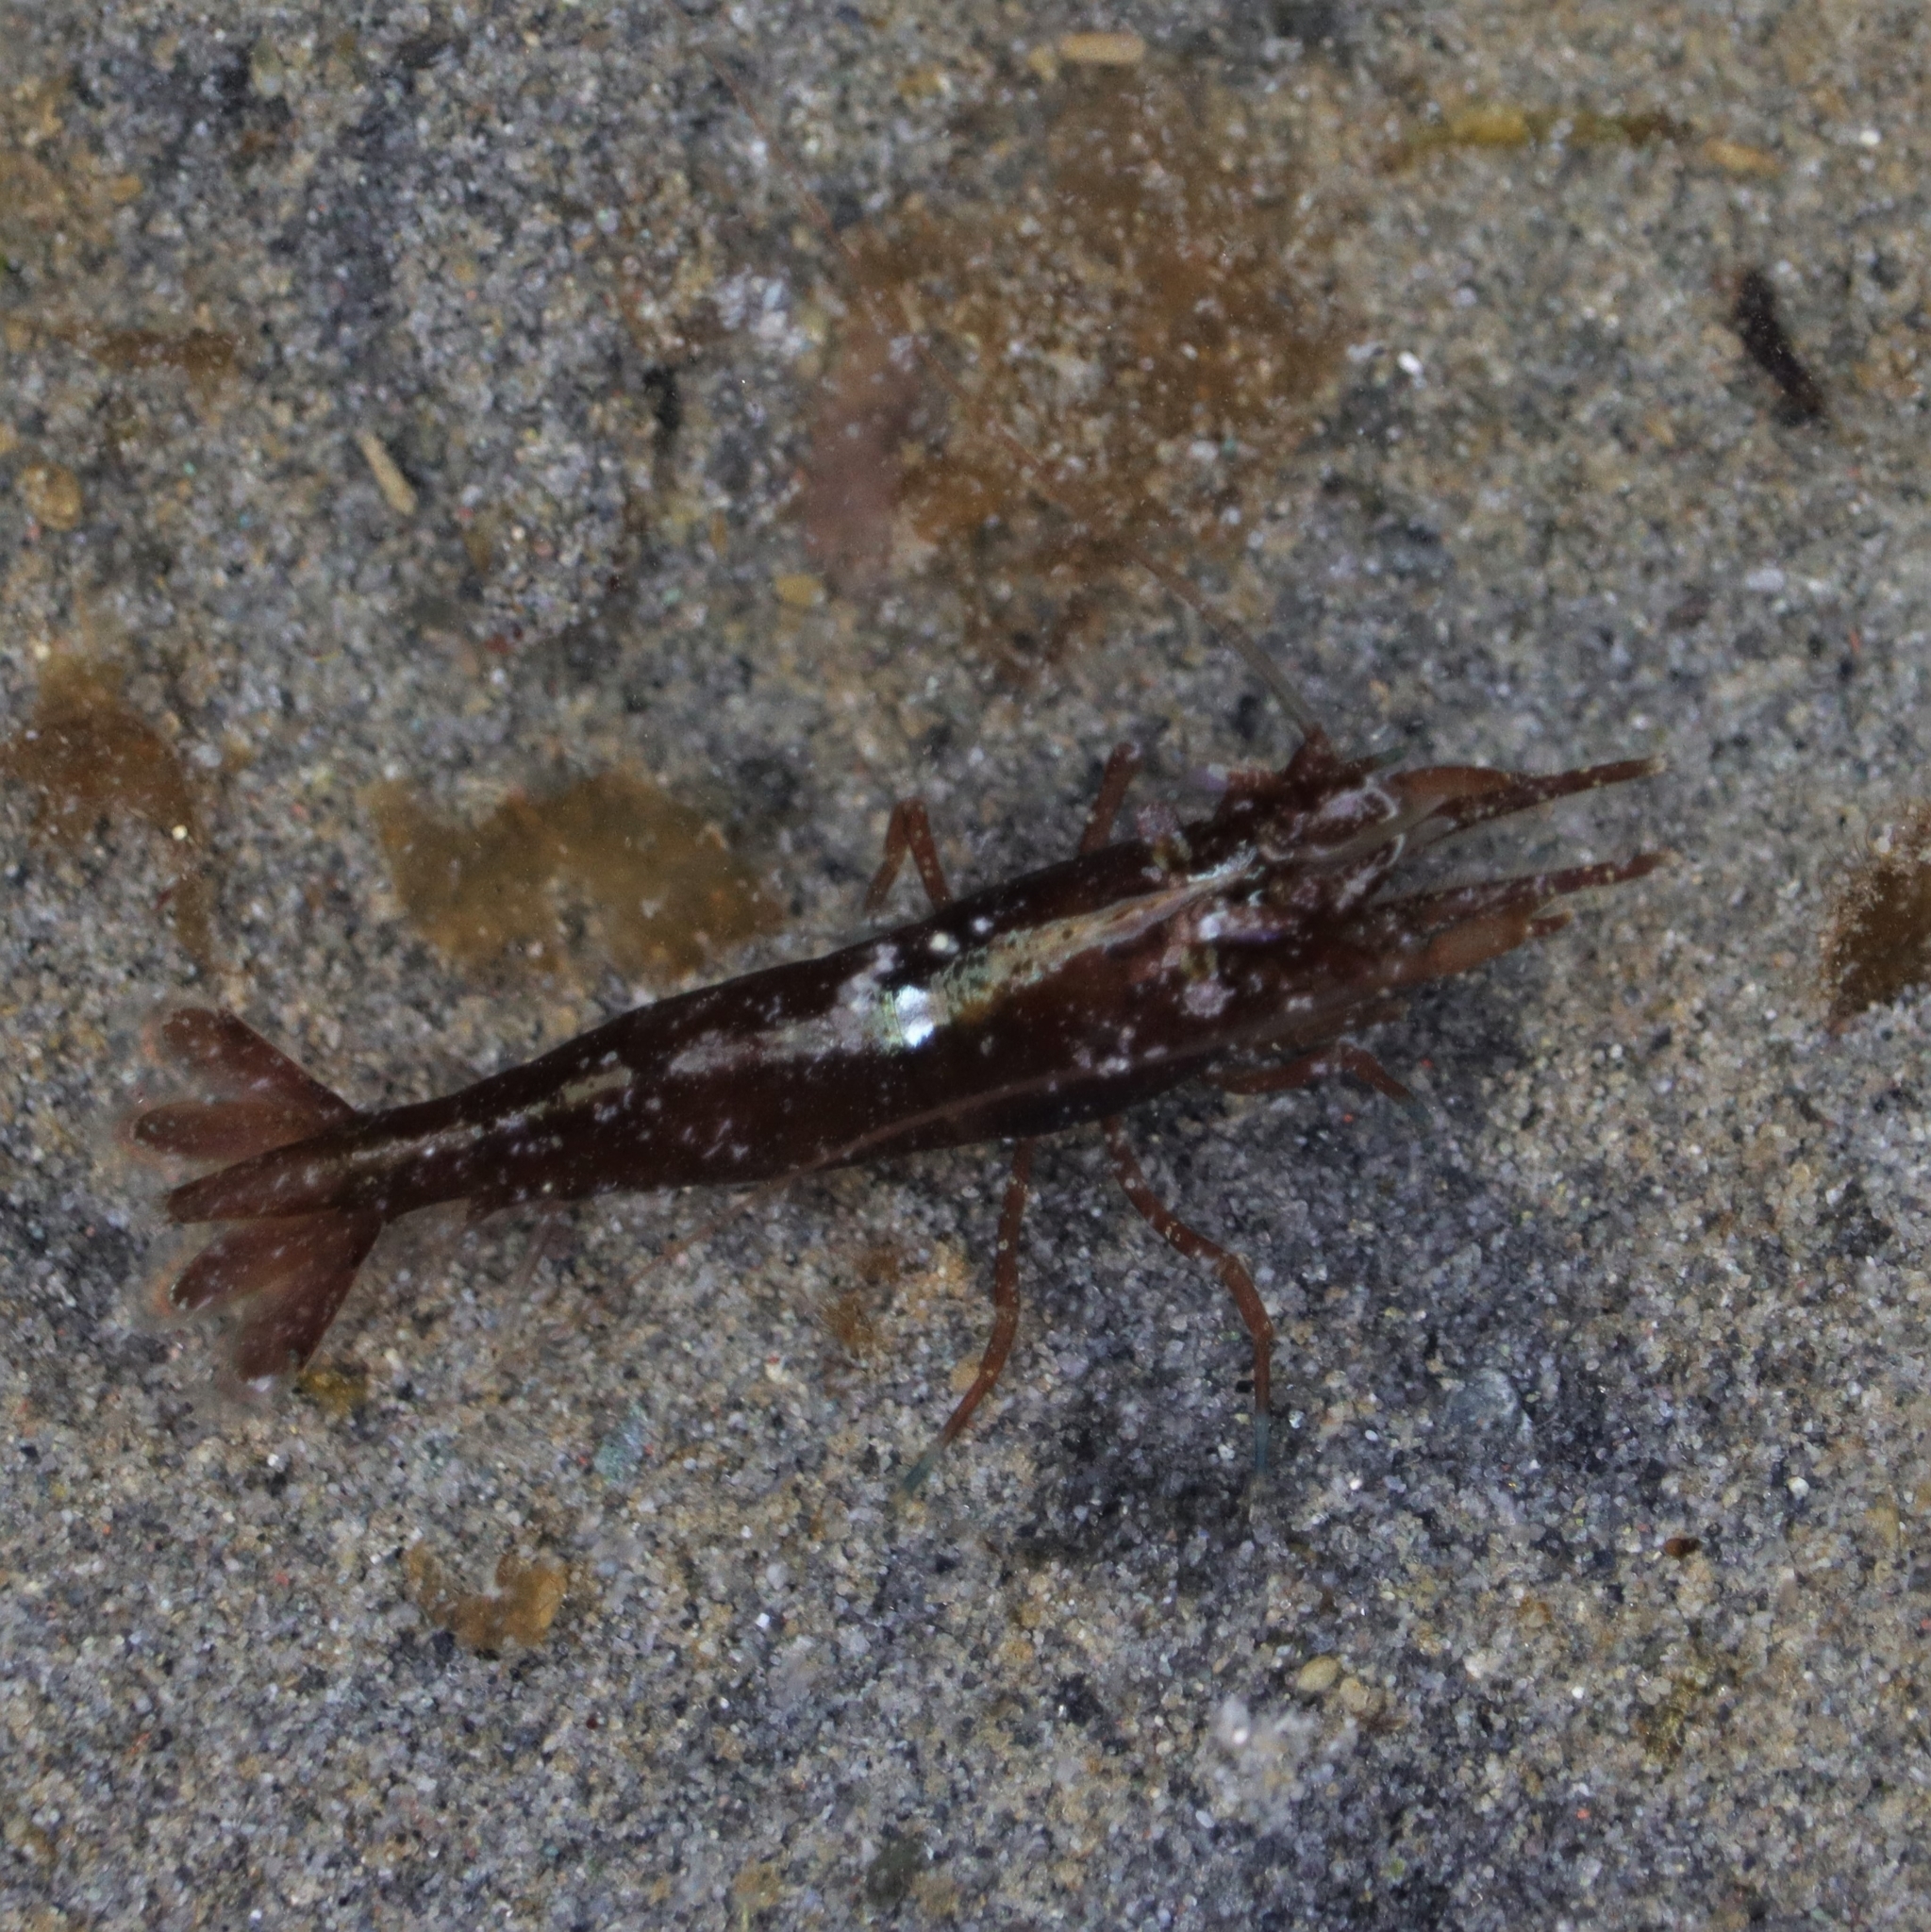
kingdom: Animalia
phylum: Arthropoda
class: Malacostraca
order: Decapoda
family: Thoridae
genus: Heptacarpus
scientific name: Heptacarpus brevirostris
